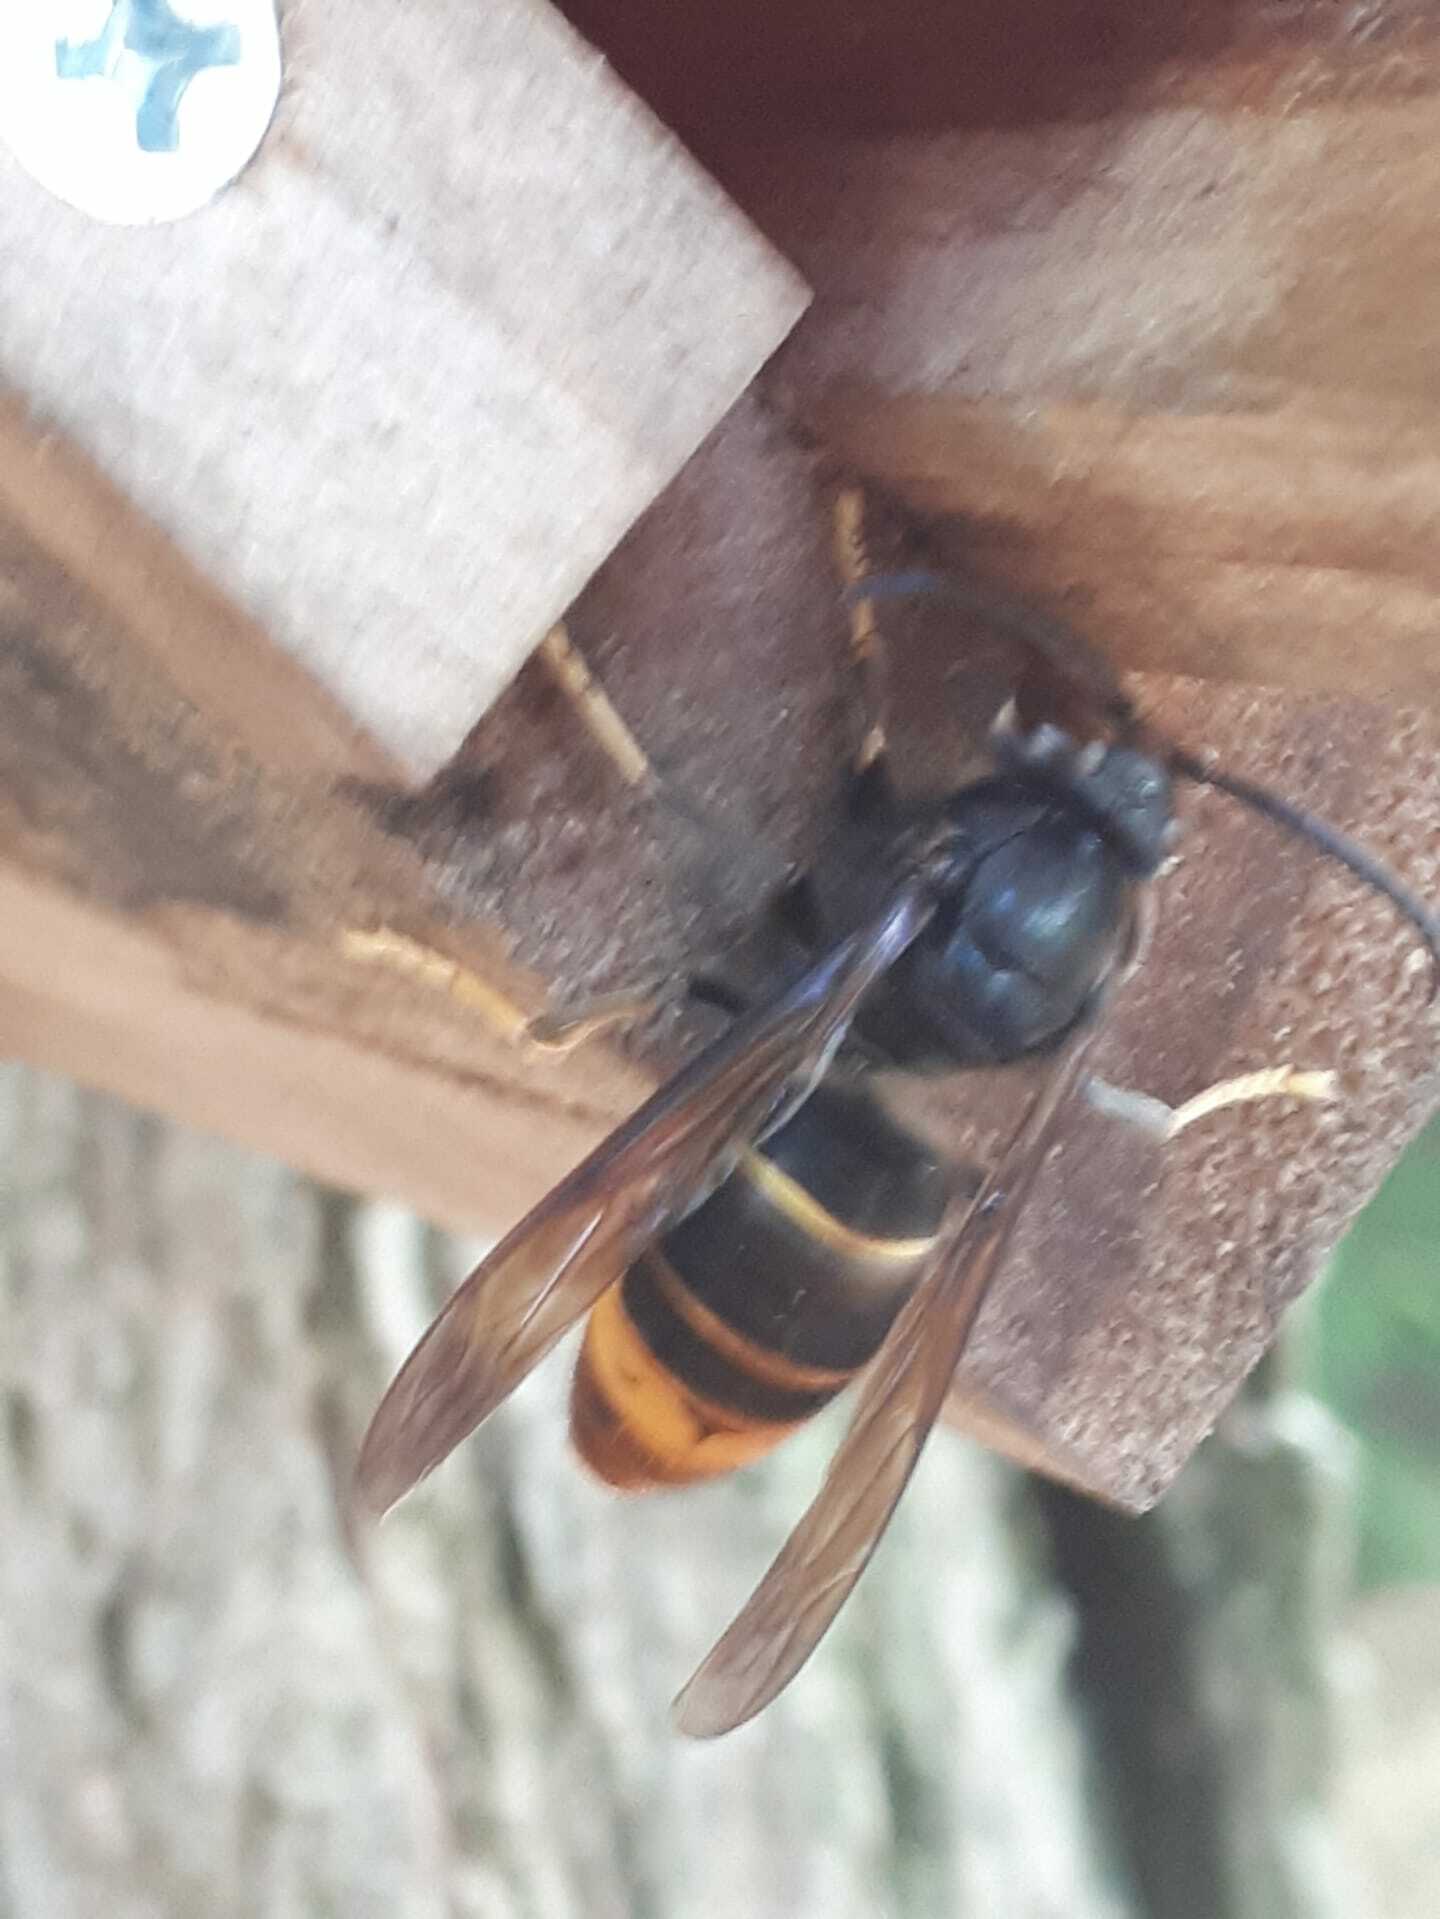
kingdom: Animalia
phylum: Arthropoda
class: Insecta
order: Hymenoptera
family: Vespidae
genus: Vespa
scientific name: Vespa velutina
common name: Asian hornet
